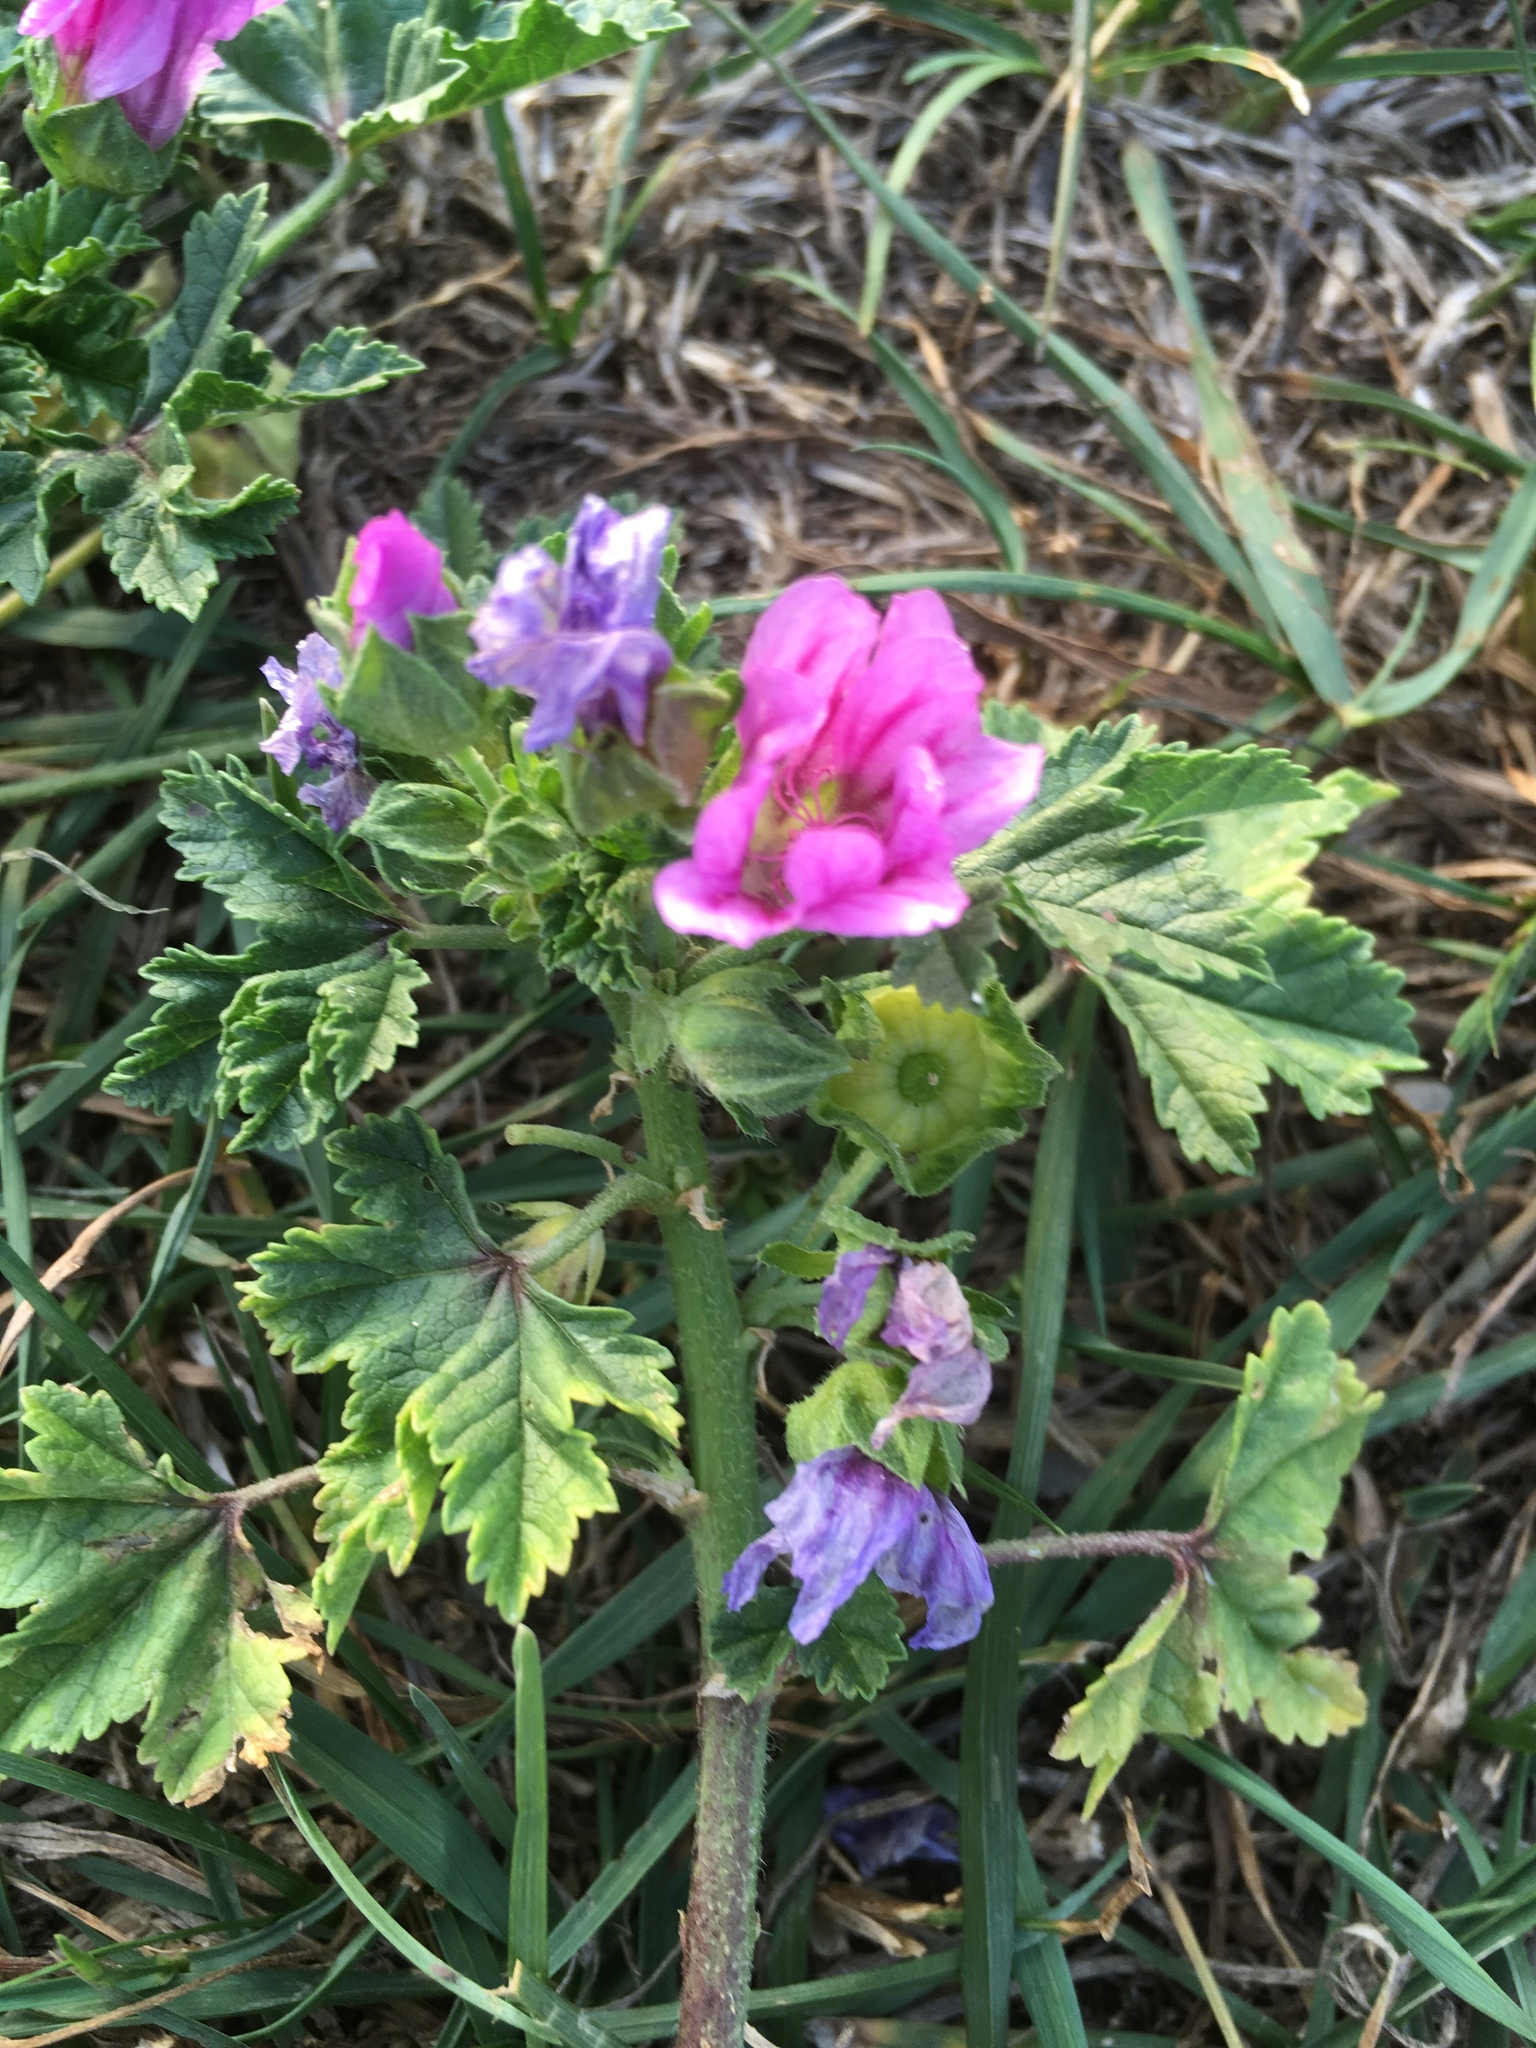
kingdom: Plantae
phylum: Tracheophyta
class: Magnoliopsida
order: Malvales
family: Malvaceae
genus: Malva
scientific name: Malva sylvestris
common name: Common mallow
